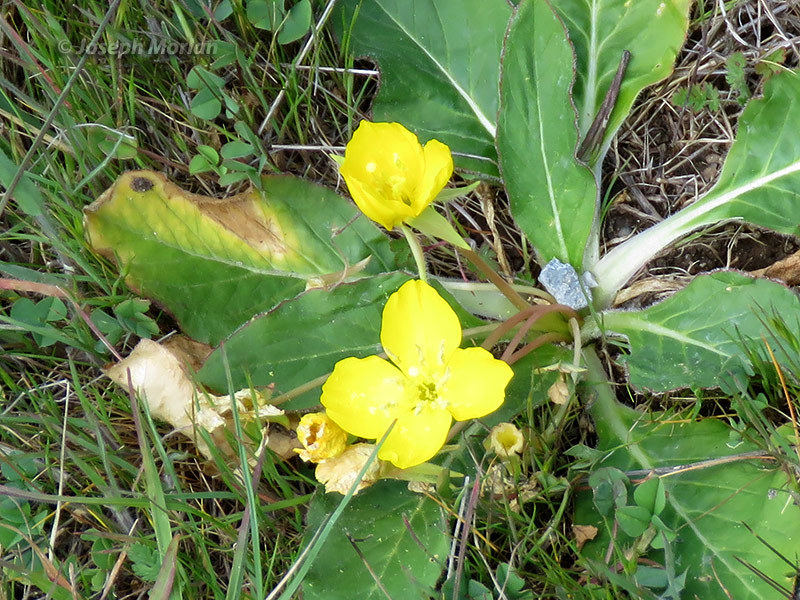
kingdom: Plantae
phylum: Tracheophyta
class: Magnoliopsida
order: Myrtales
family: Onagraceae
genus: Taraxia
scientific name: Taraxia ovata
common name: Goldeneggs
